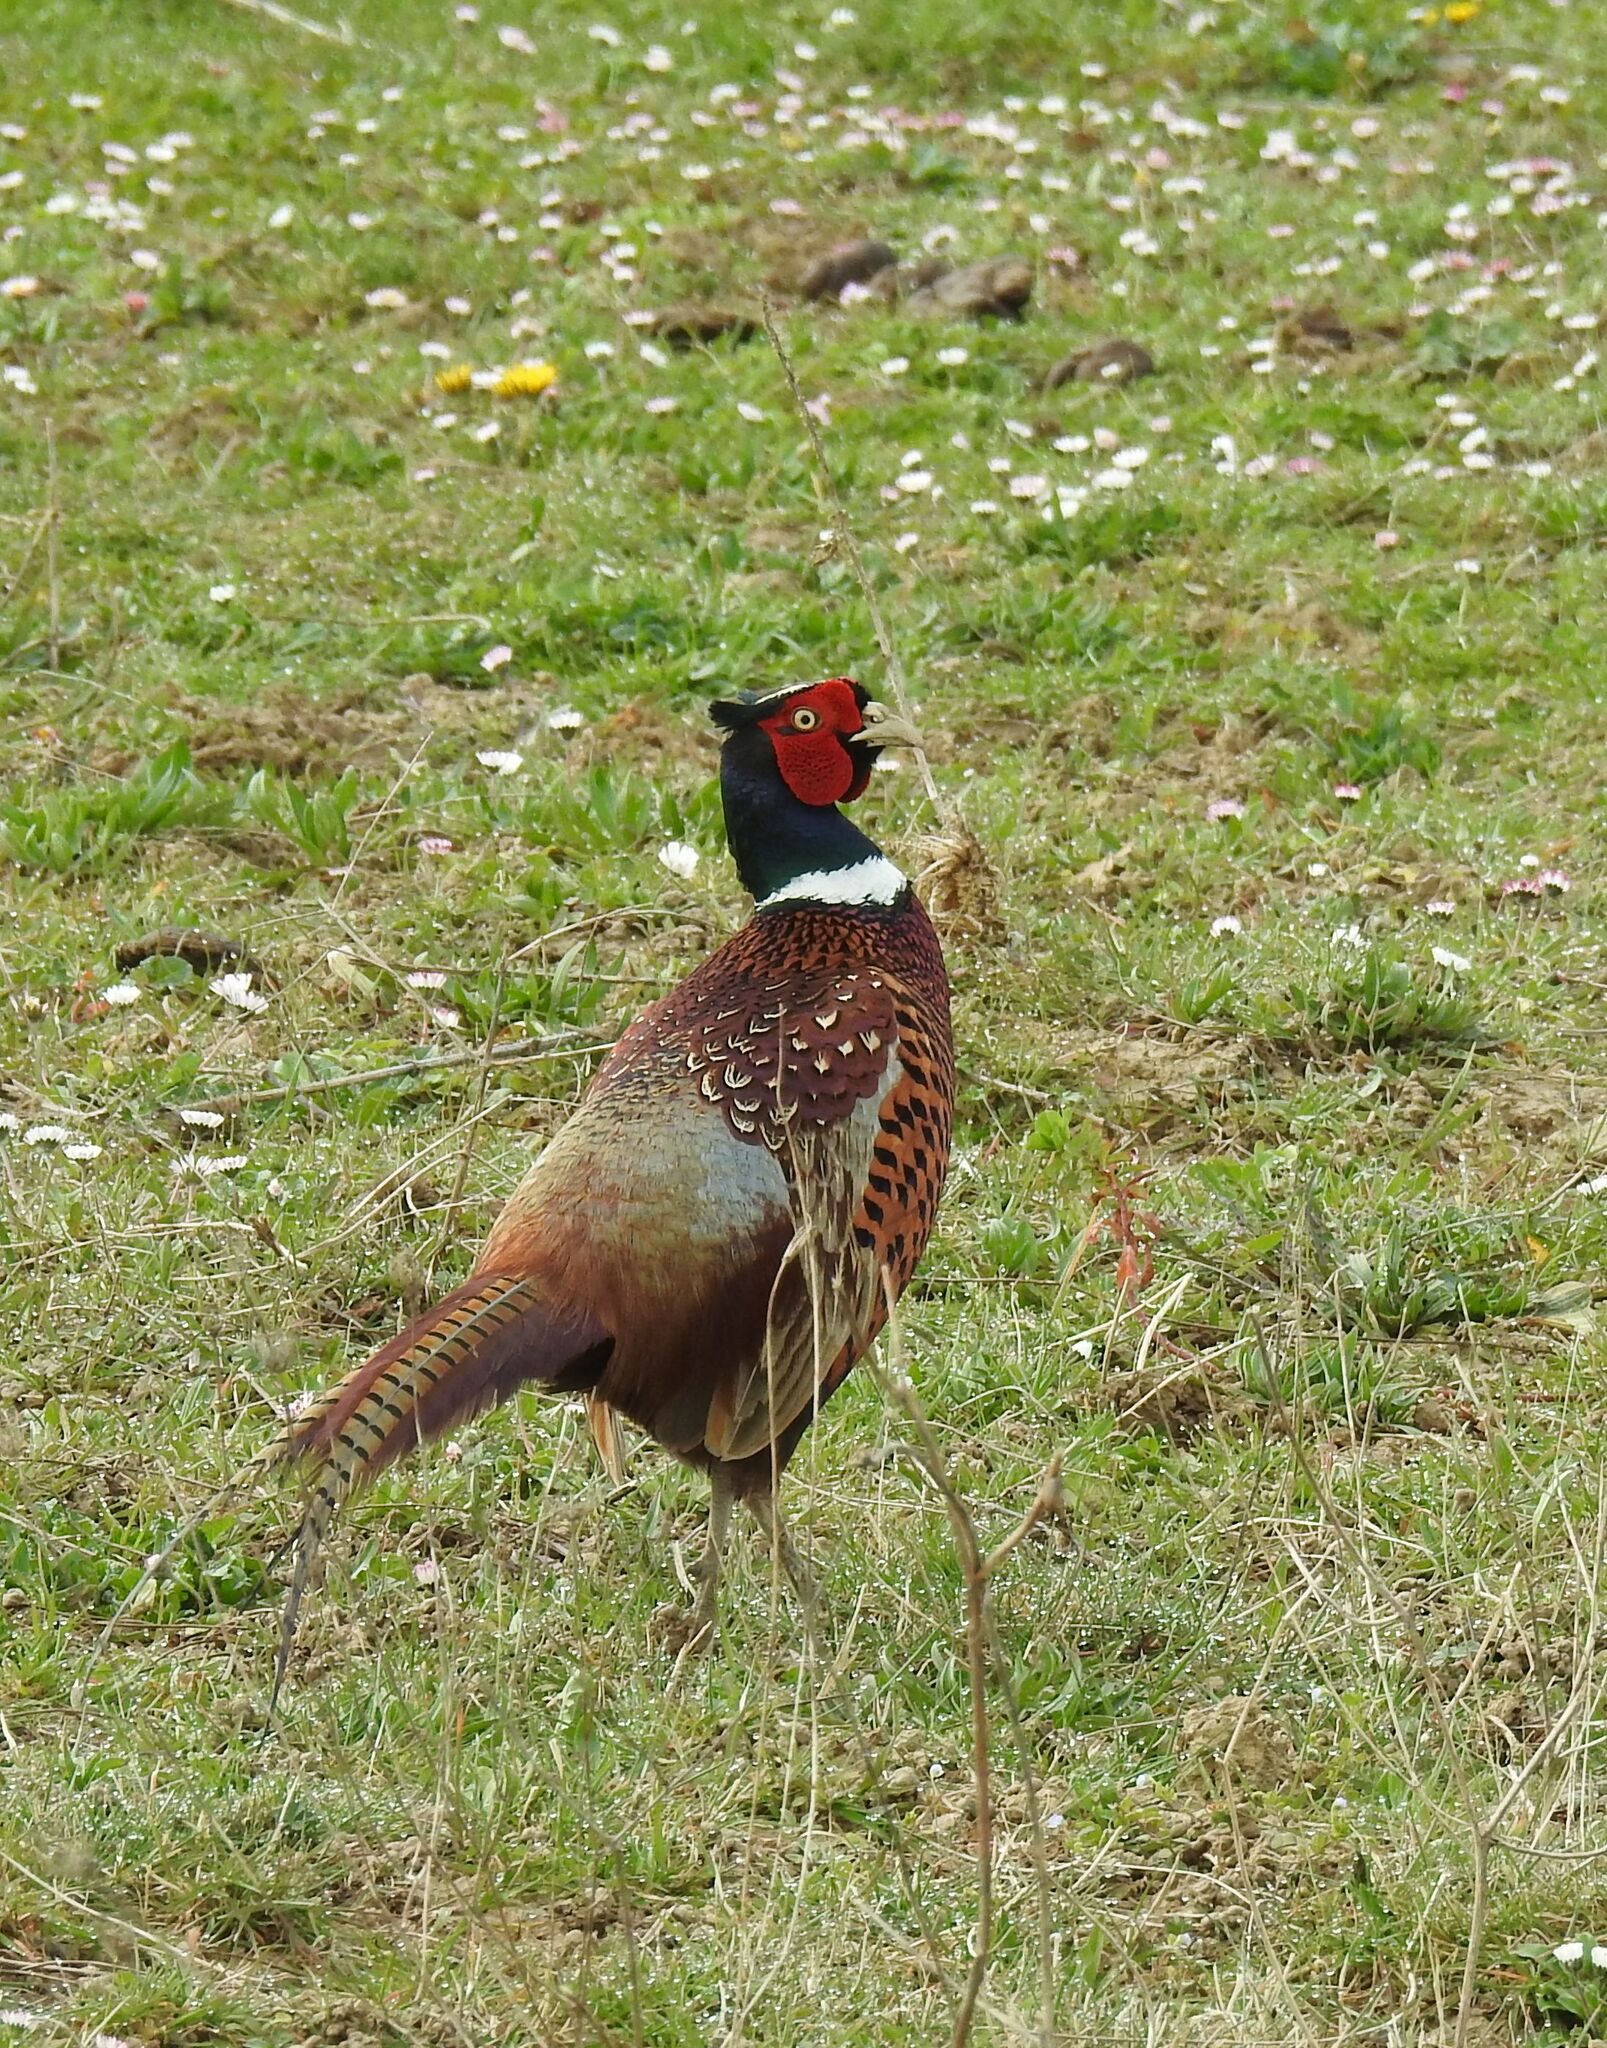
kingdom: Animalia
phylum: Chordata
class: Aves
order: Galliformes
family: Phasianidae
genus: Phasianus
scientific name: Phasianus colchicus
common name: Common pheasant
